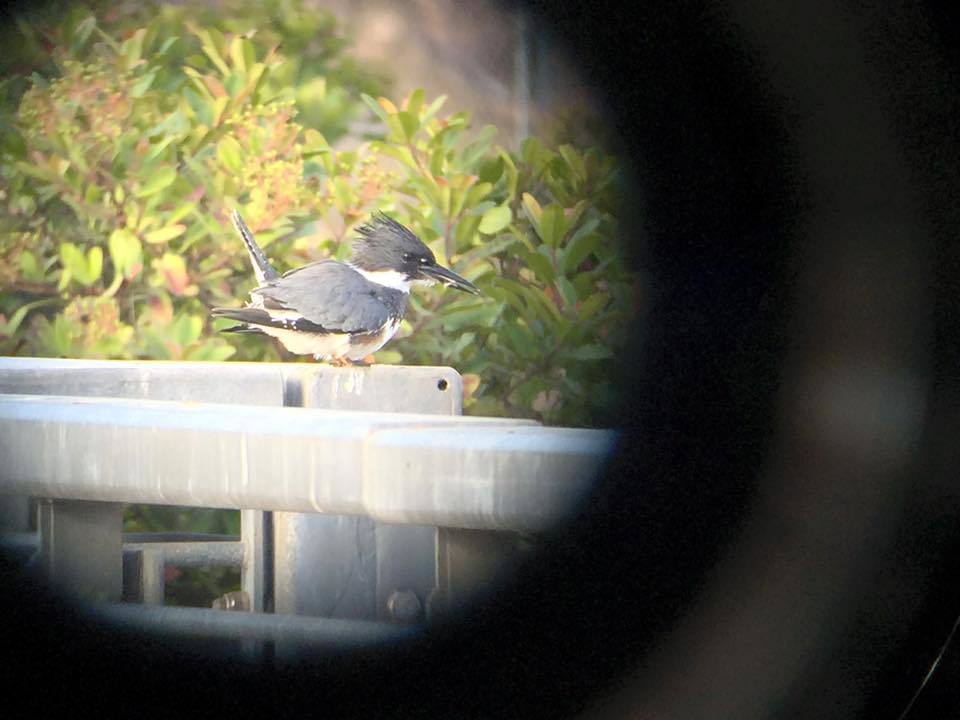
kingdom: Animalia
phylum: Chordata
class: Aves
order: Coraciiformes
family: Alcedinidae
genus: Megaceryle
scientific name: Megaceryle alcyon
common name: Belted kingfisher
